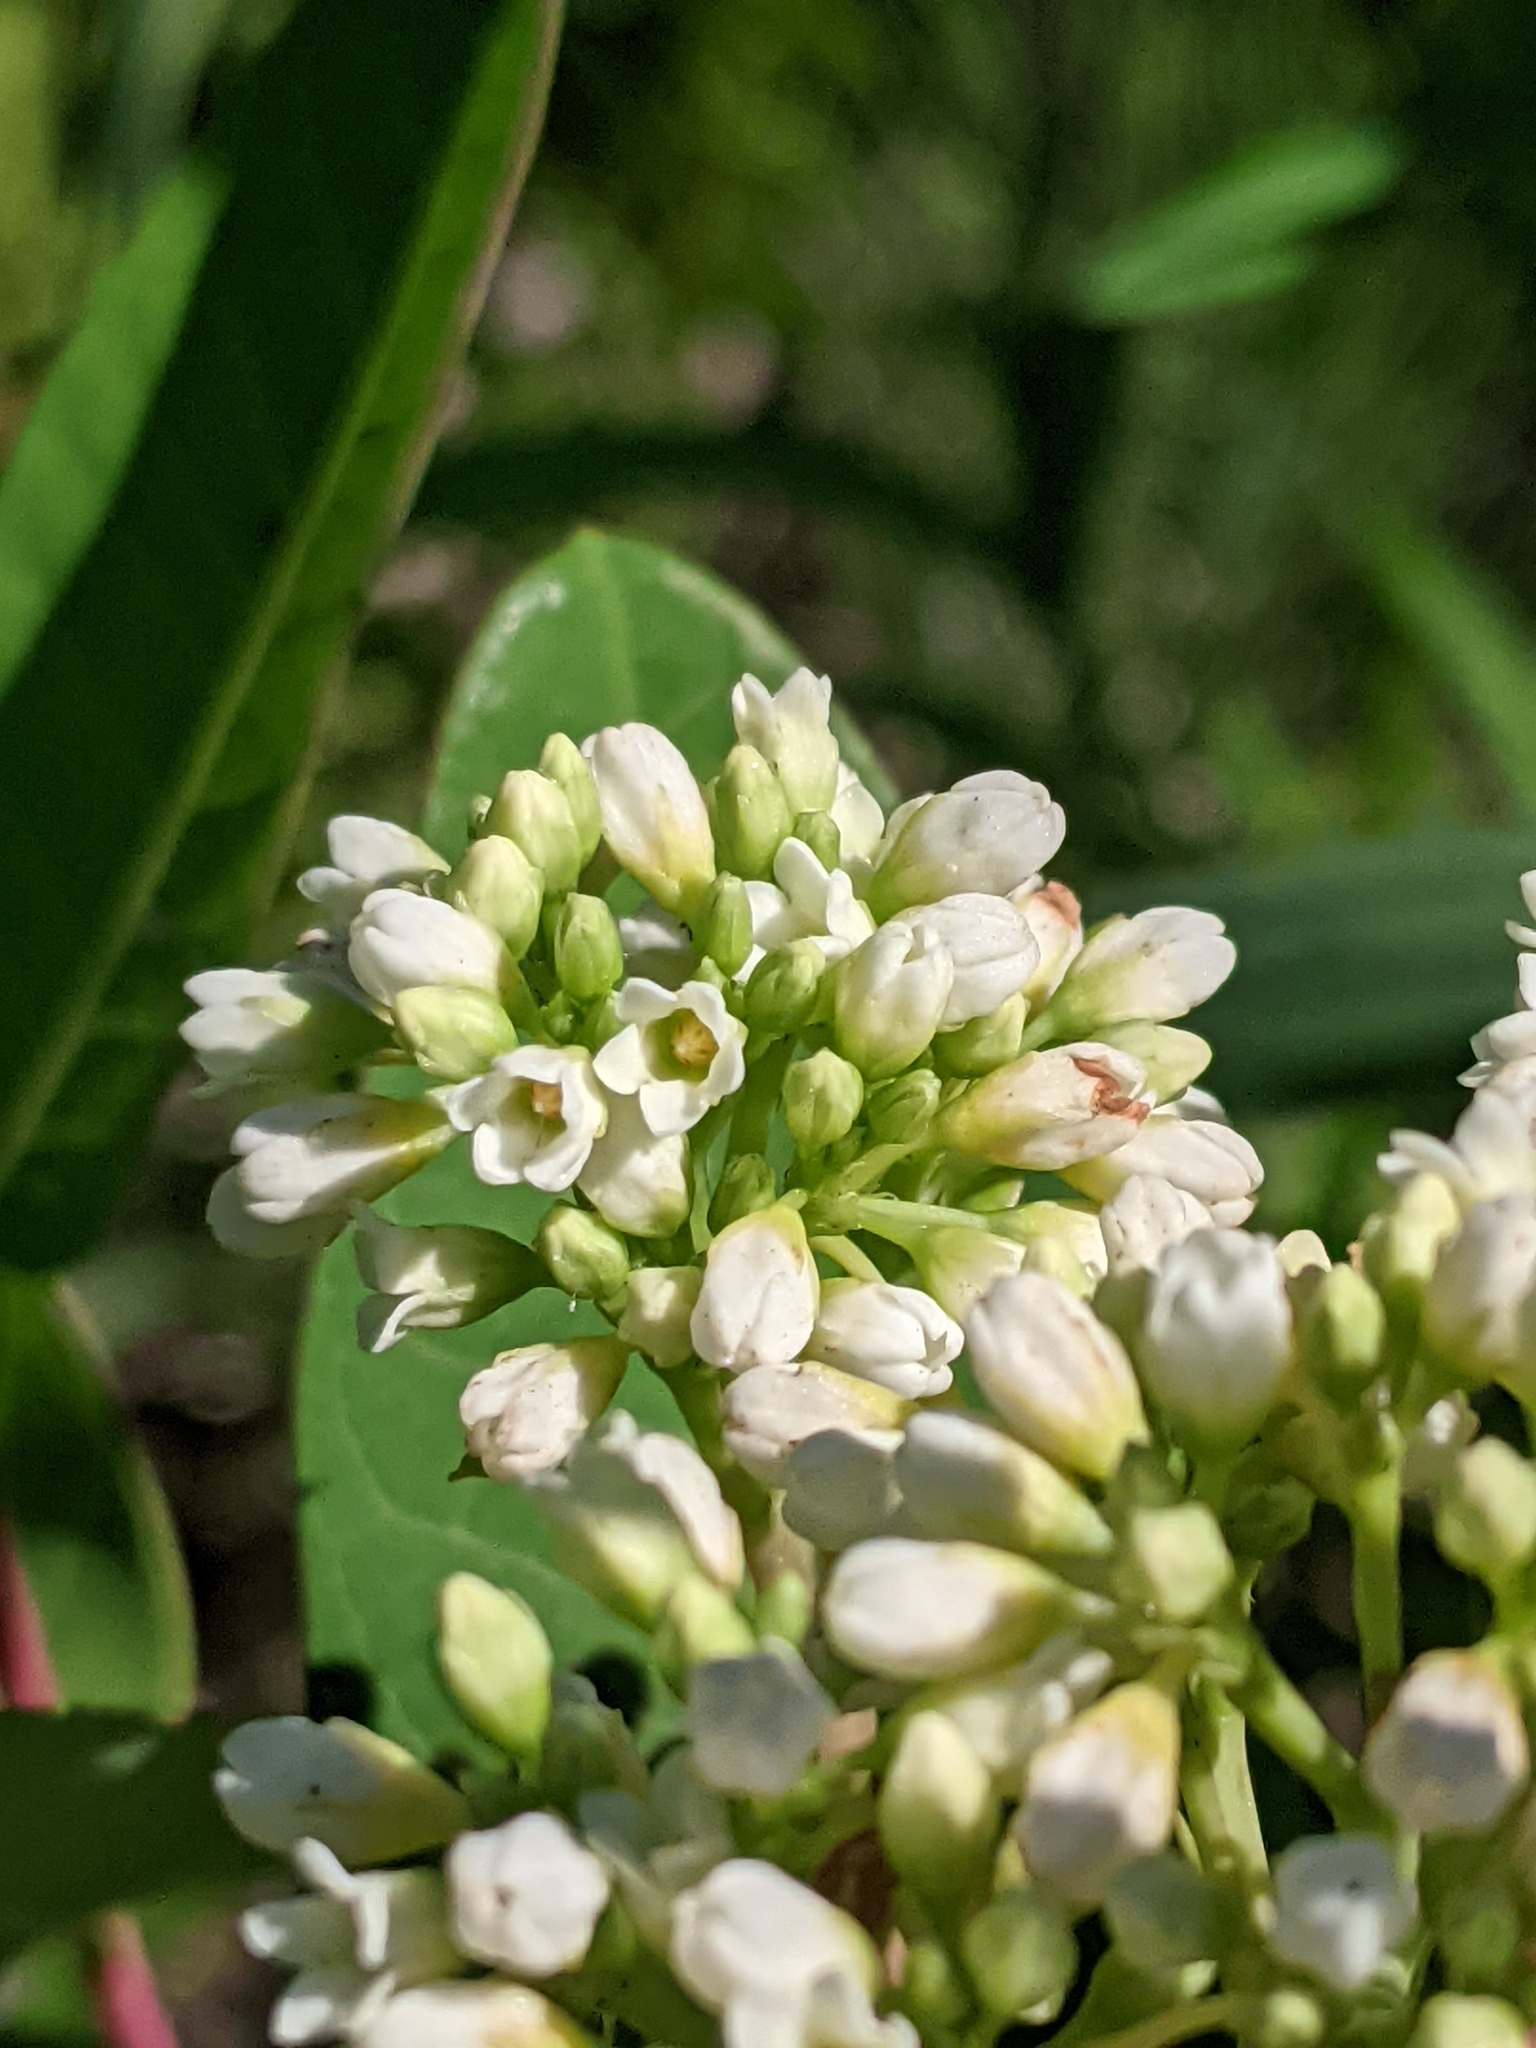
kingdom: Plantae
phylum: Tracheophyta
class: Magnoliopsida
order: Gentianales
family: Apocynaceae
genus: Apocynum
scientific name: Apocynum cannabinum
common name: Hemp dogbane
